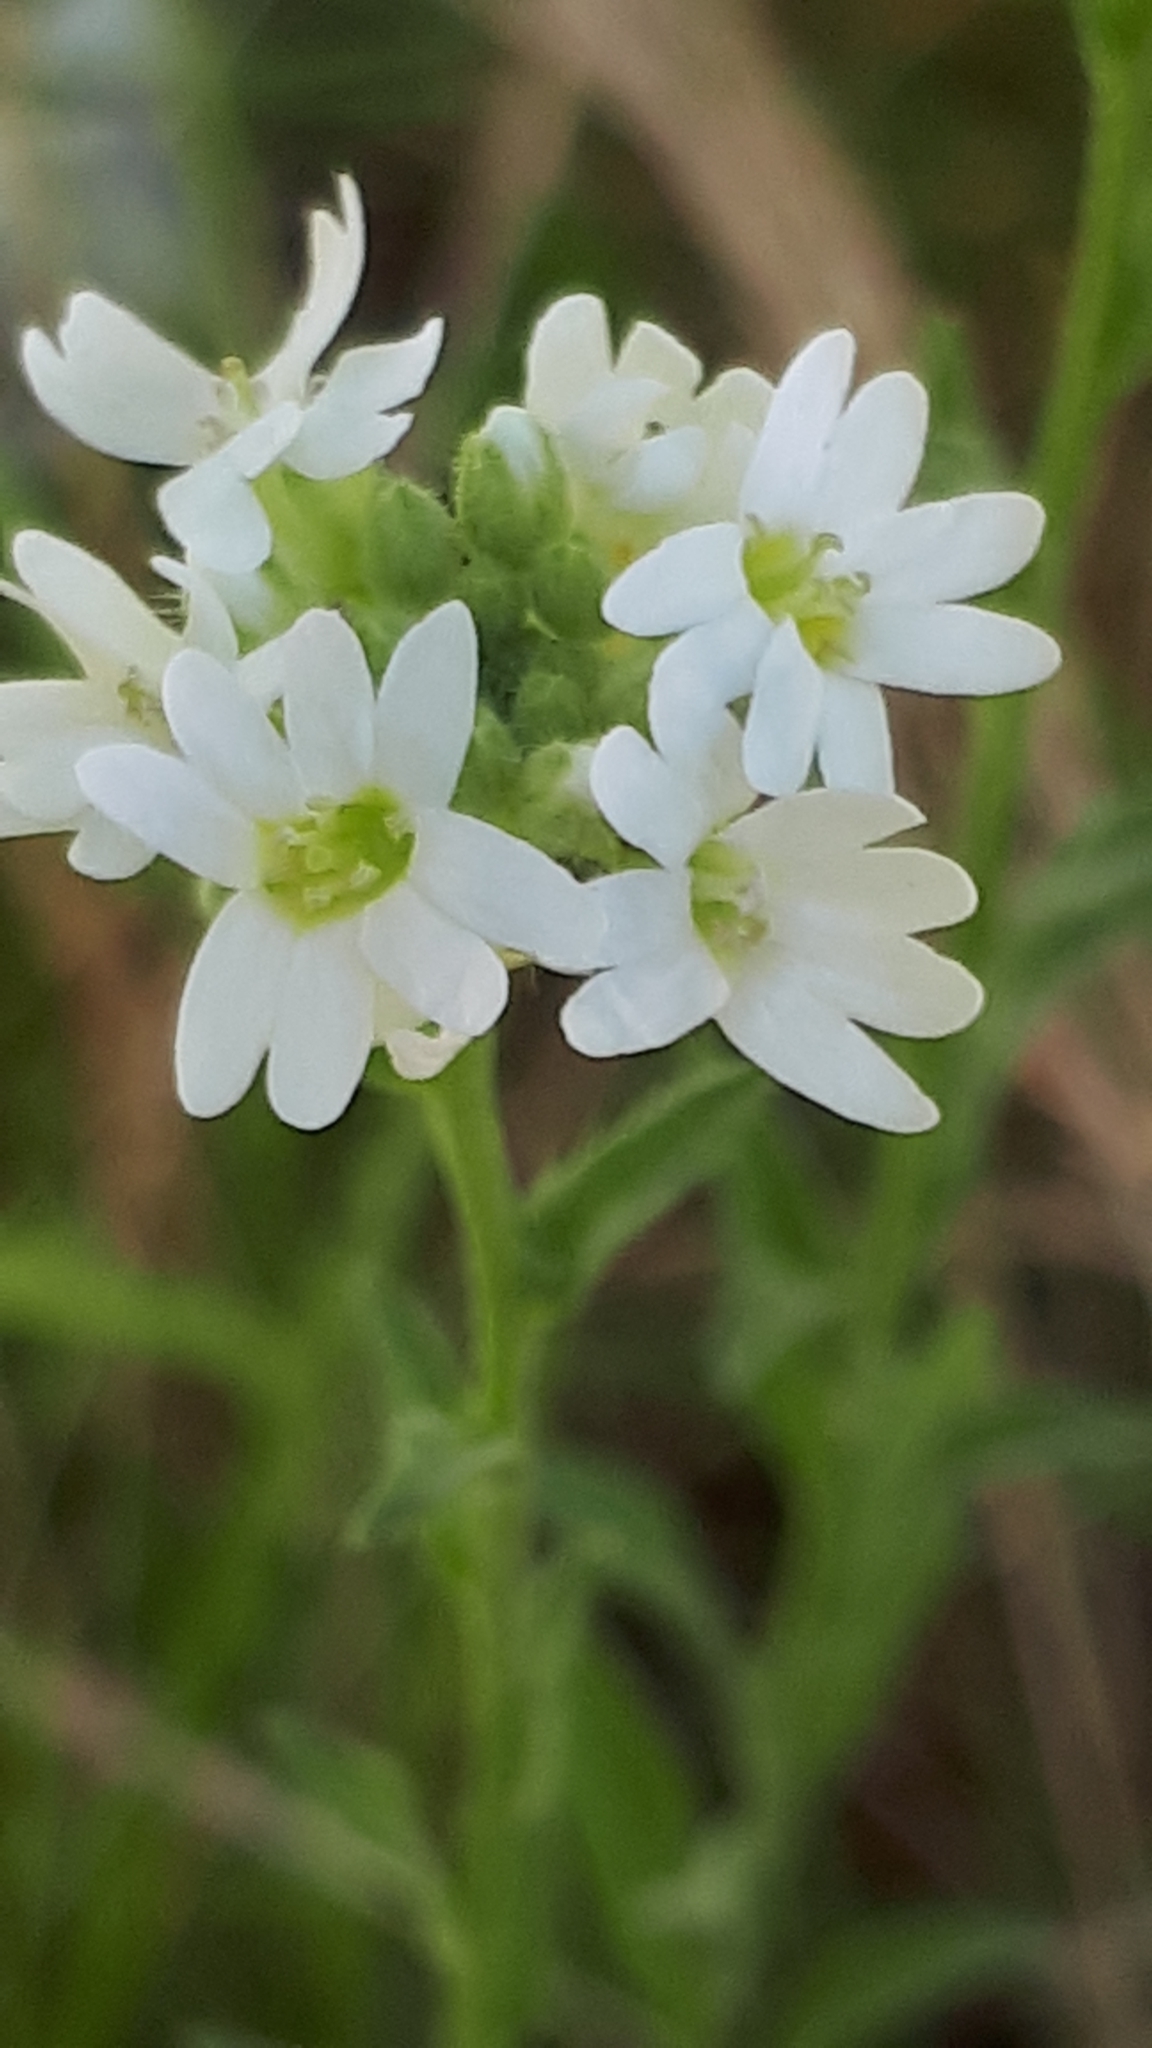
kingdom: Plantae
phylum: Tracheophyta
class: Magnoliopsida
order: Brassicales
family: Brassicaceae
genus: Berteroa
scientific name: Berteroa incana
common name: Hoary alison
